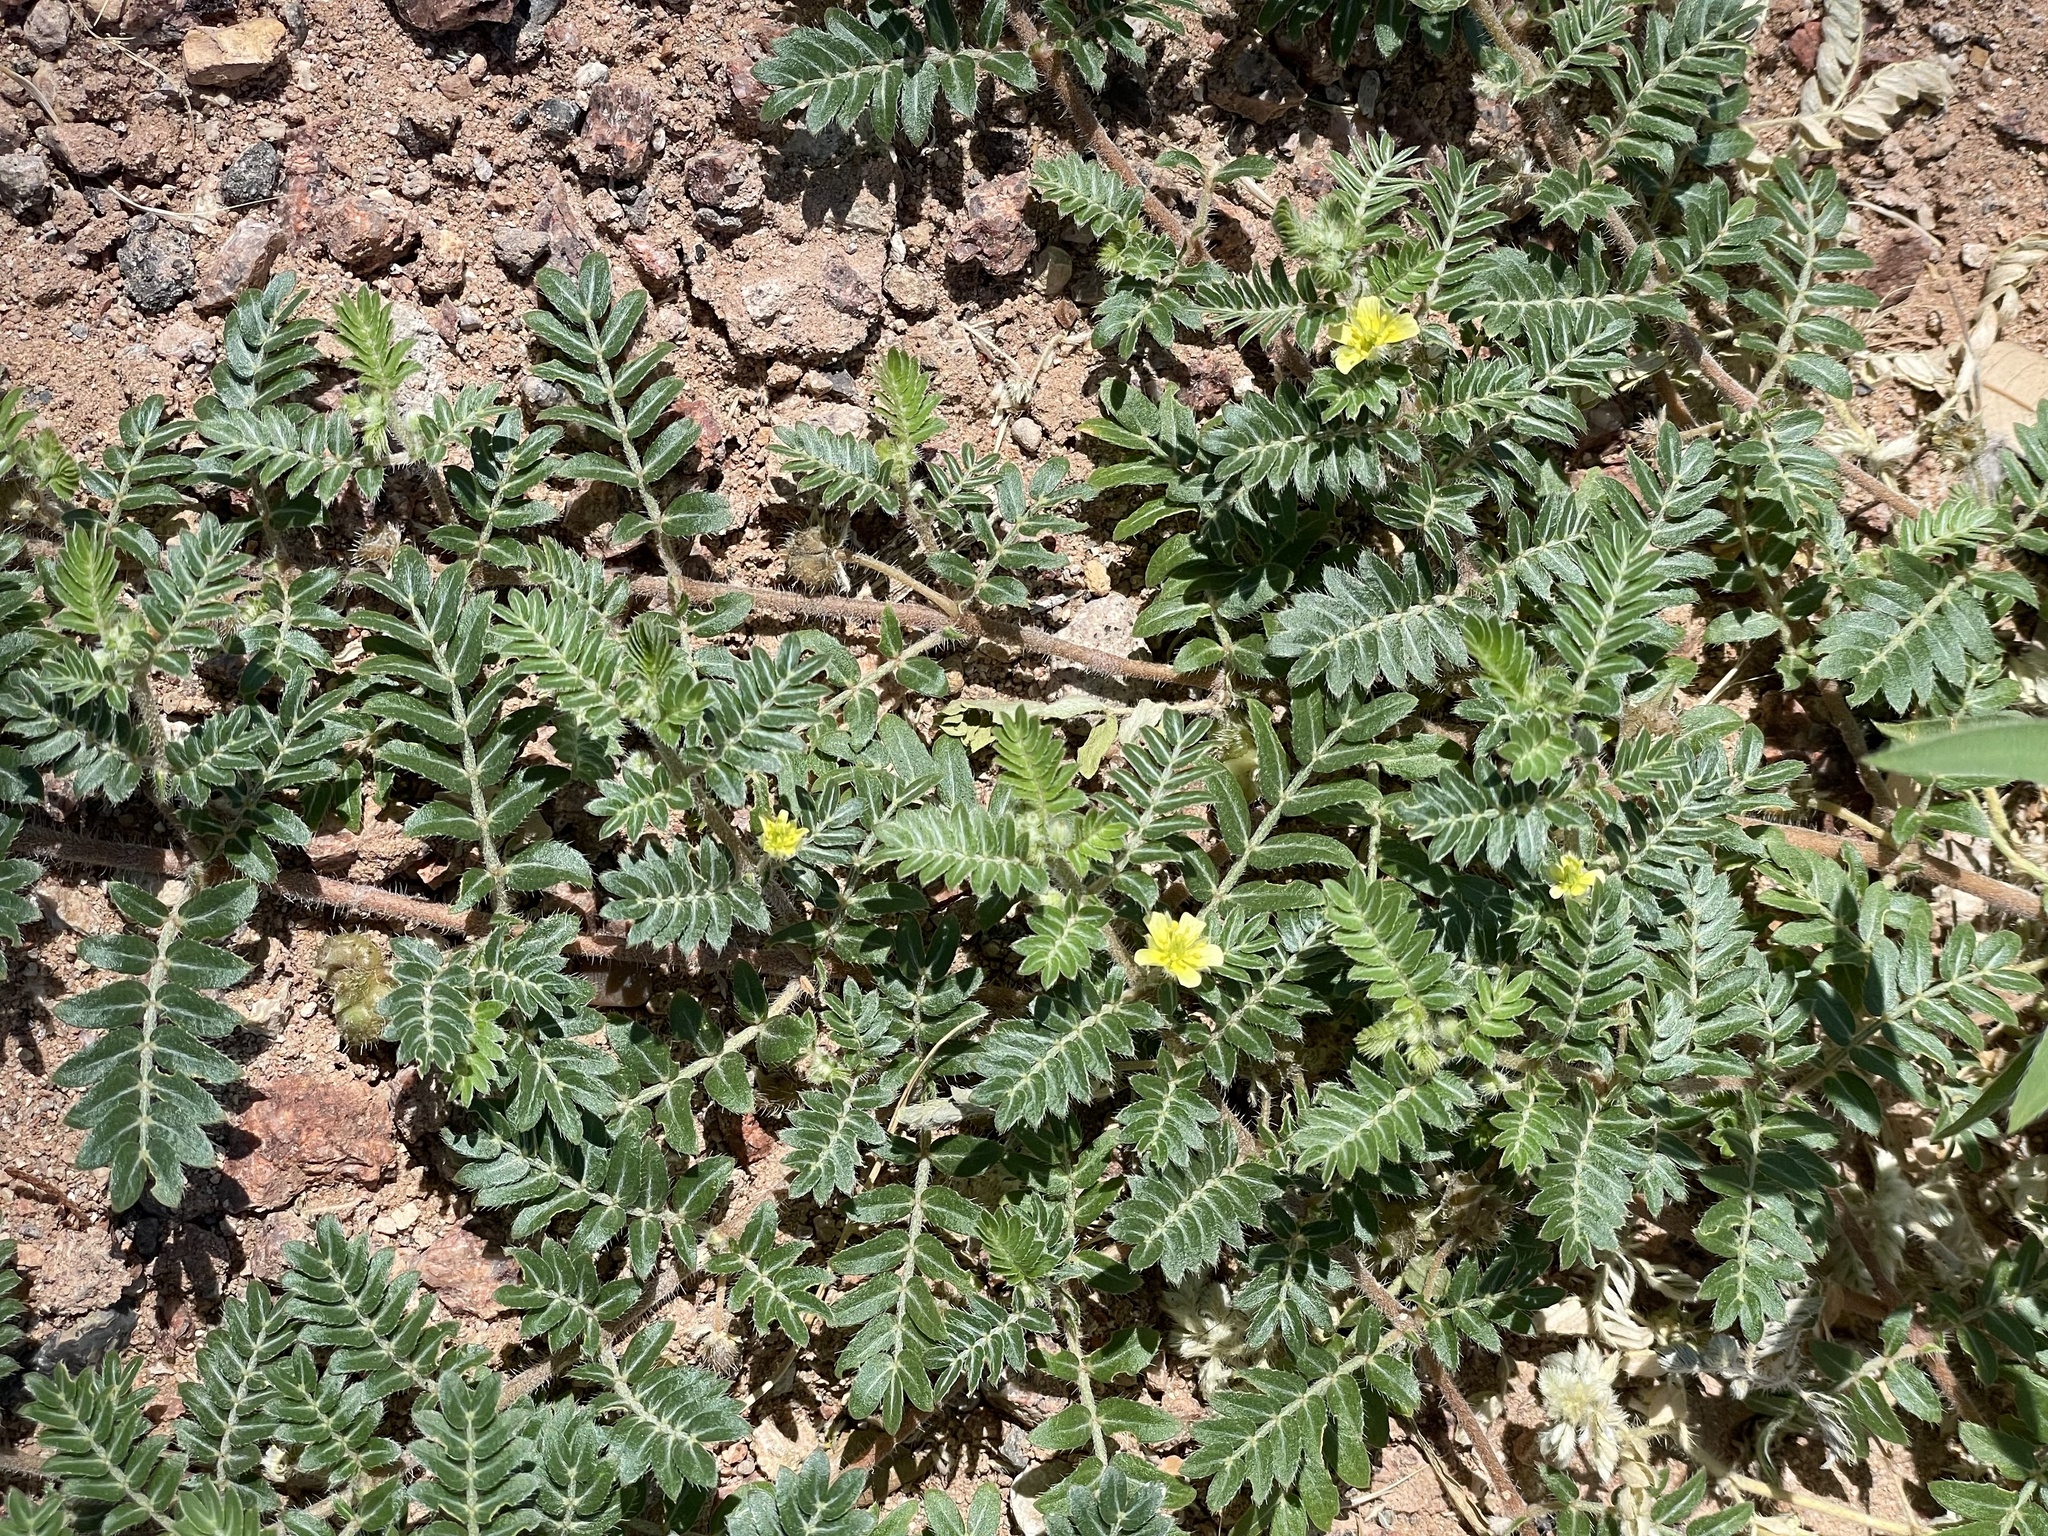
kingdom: Plantae
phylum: Tracheophyta
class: Magnoliopsida
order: Zygophyllales
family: Zygophyllaceae
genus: Tribulus
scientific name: Tribulus terrestris
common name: Puncturevine
